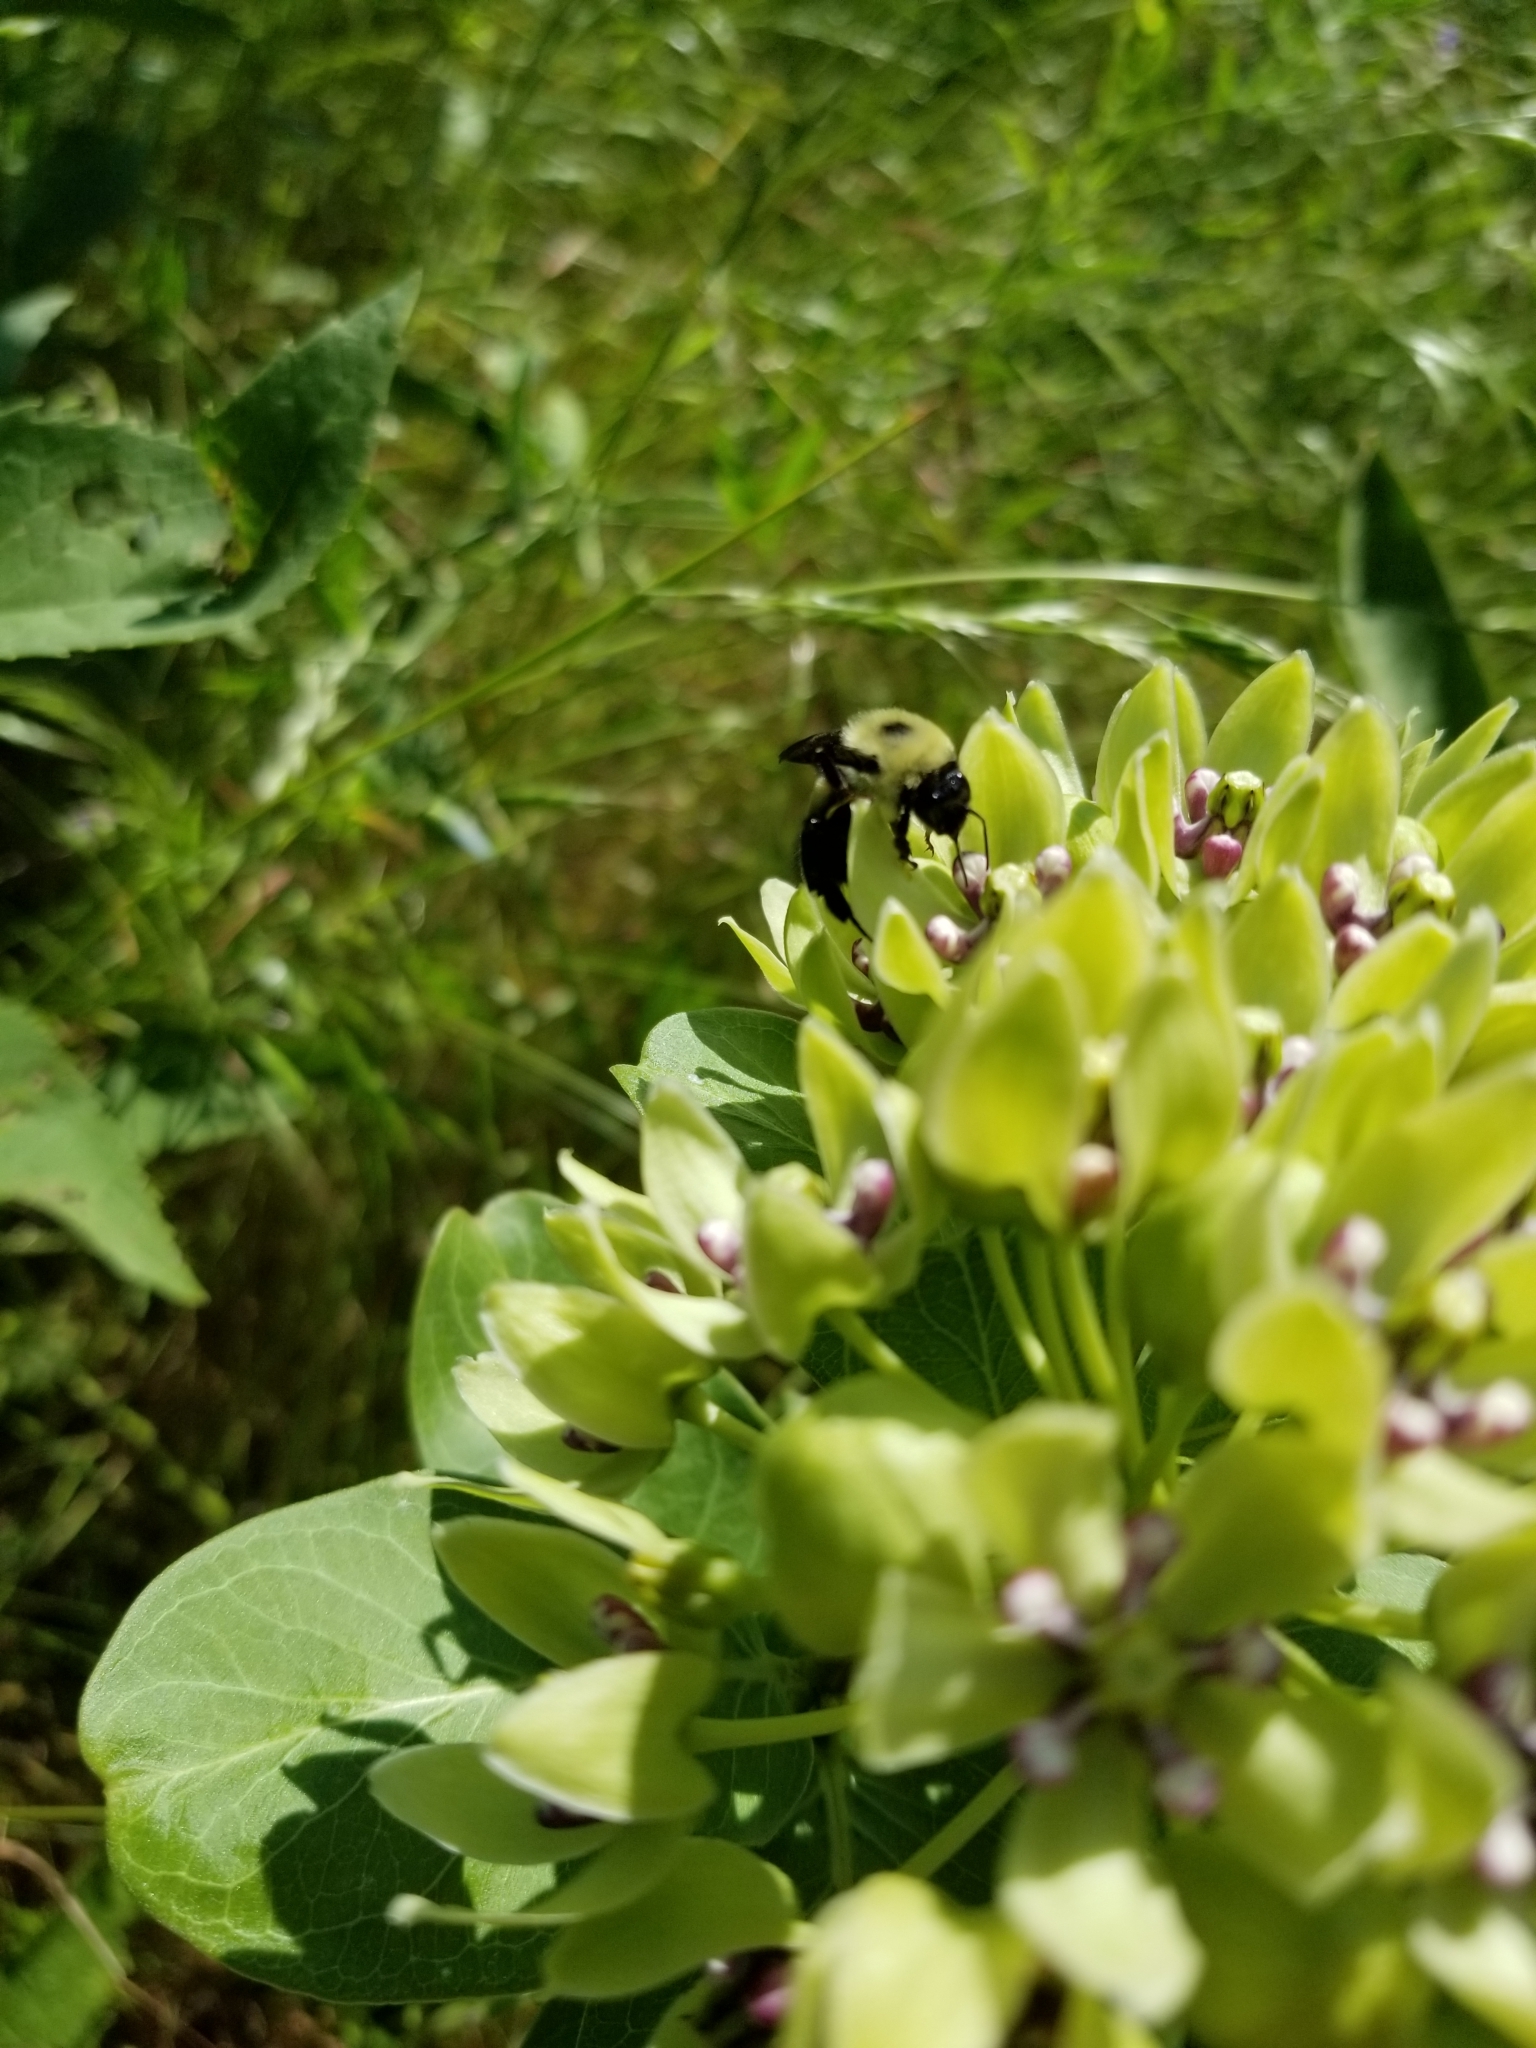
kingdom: Animalia
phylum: Arthropoda
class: Insecta
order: Hymenoptera
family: Apidae
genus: Bombus
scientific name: Bombus griseocollis
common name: Brown-belted bumble bee
